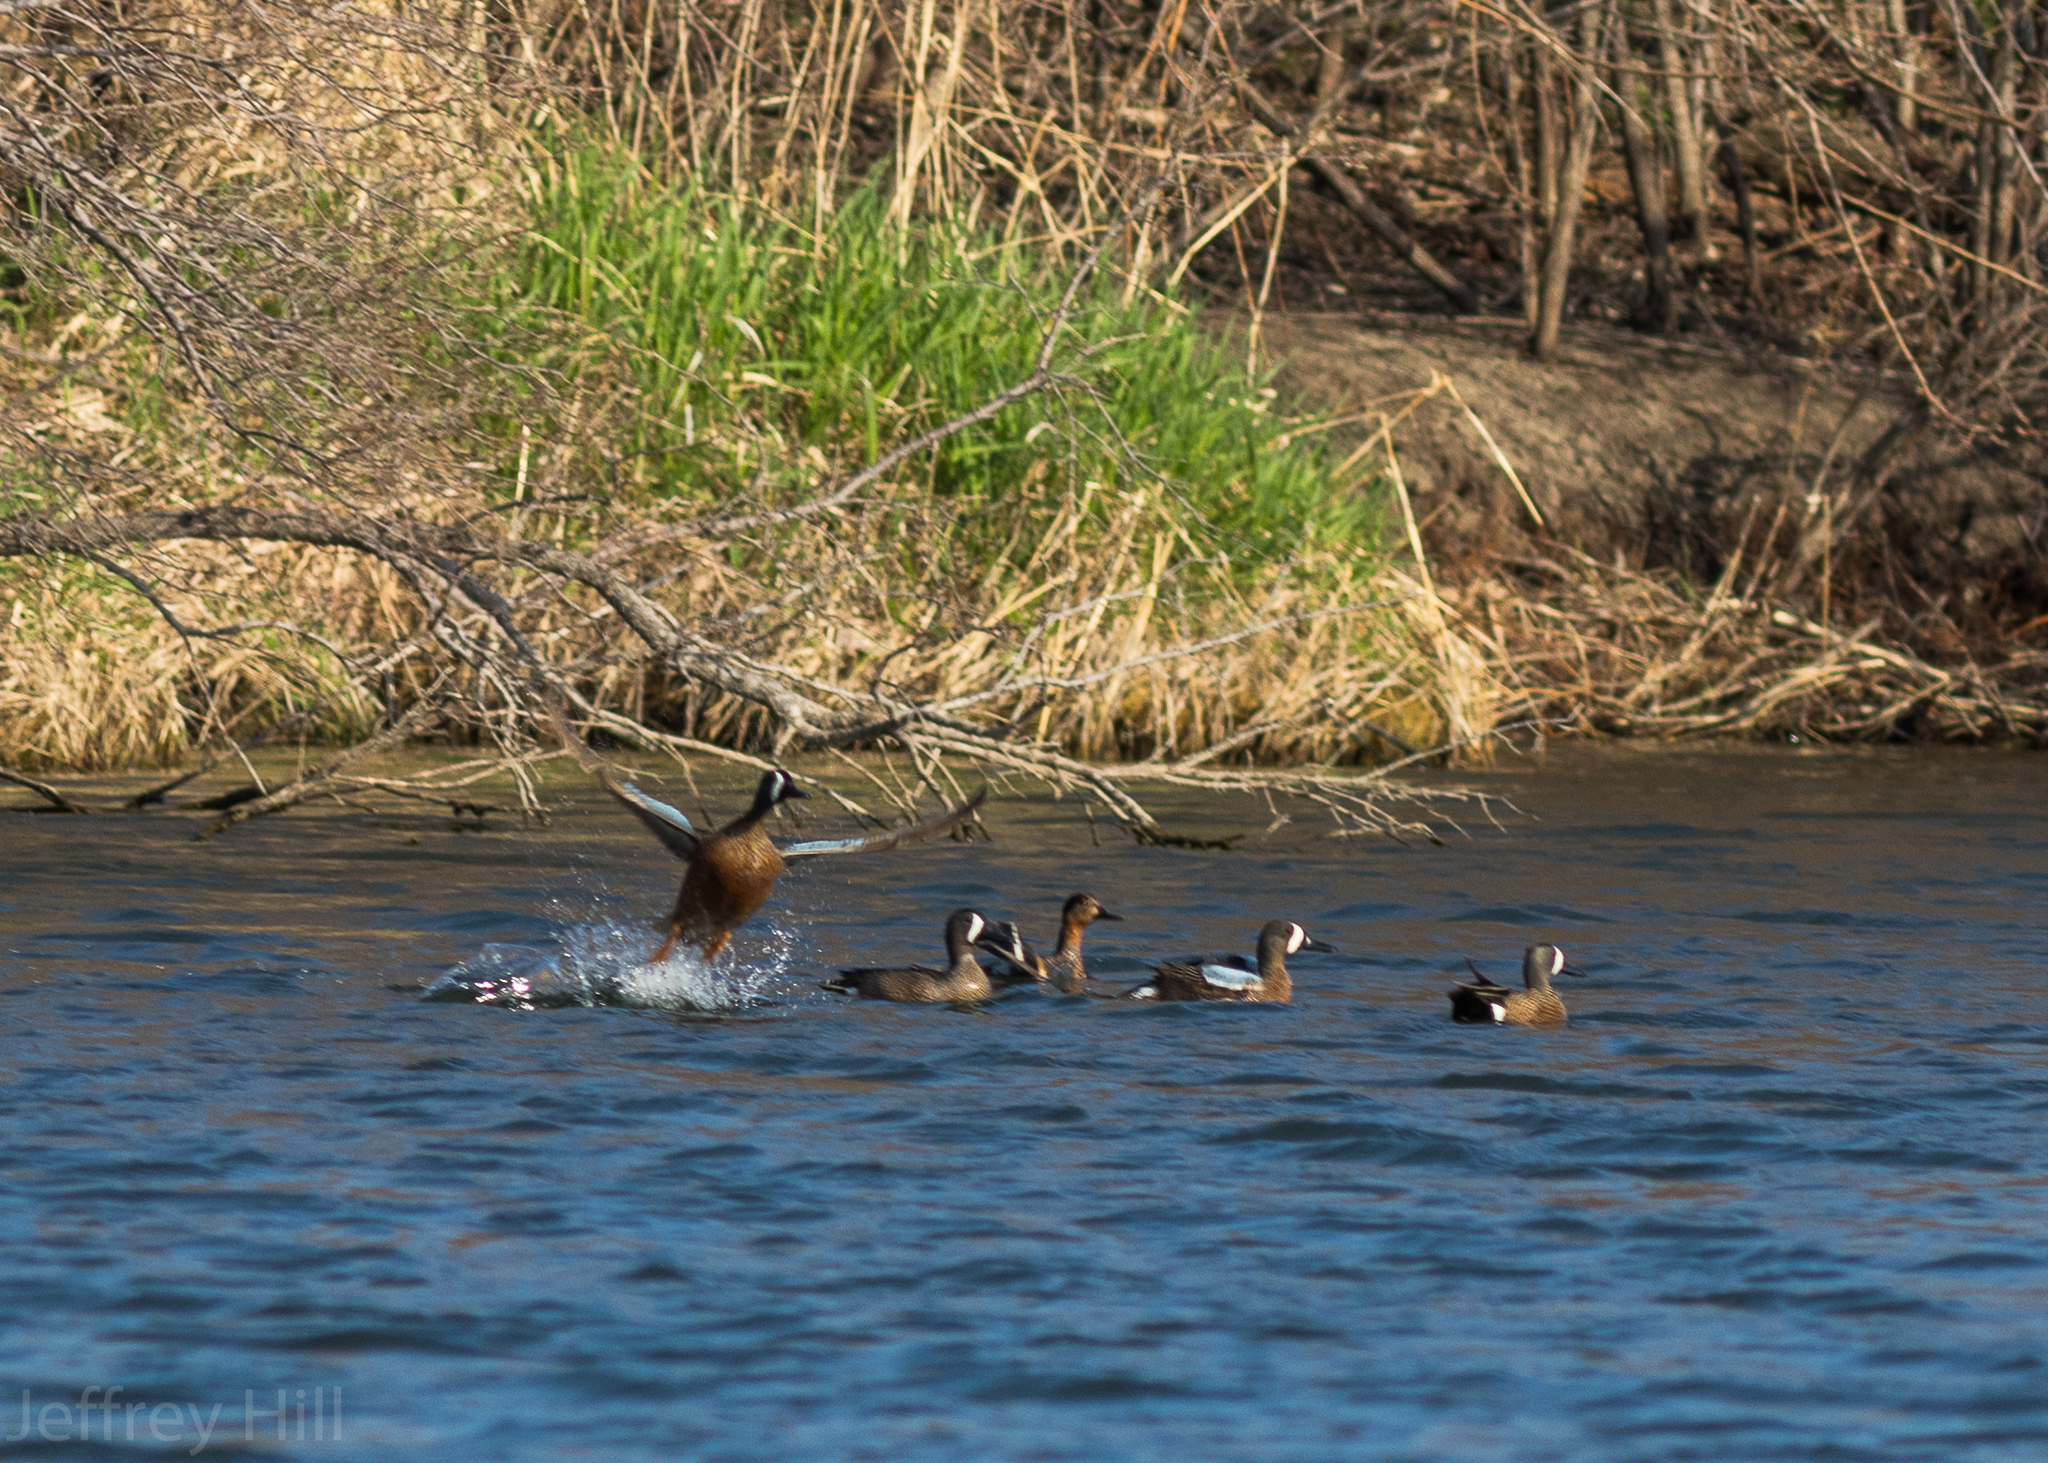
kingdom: Animalia
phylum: Chordata
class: Aves
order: Anseriformes
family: Anatidae
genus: Spatula
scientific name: Spatula discors
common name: Blue-winged teal
